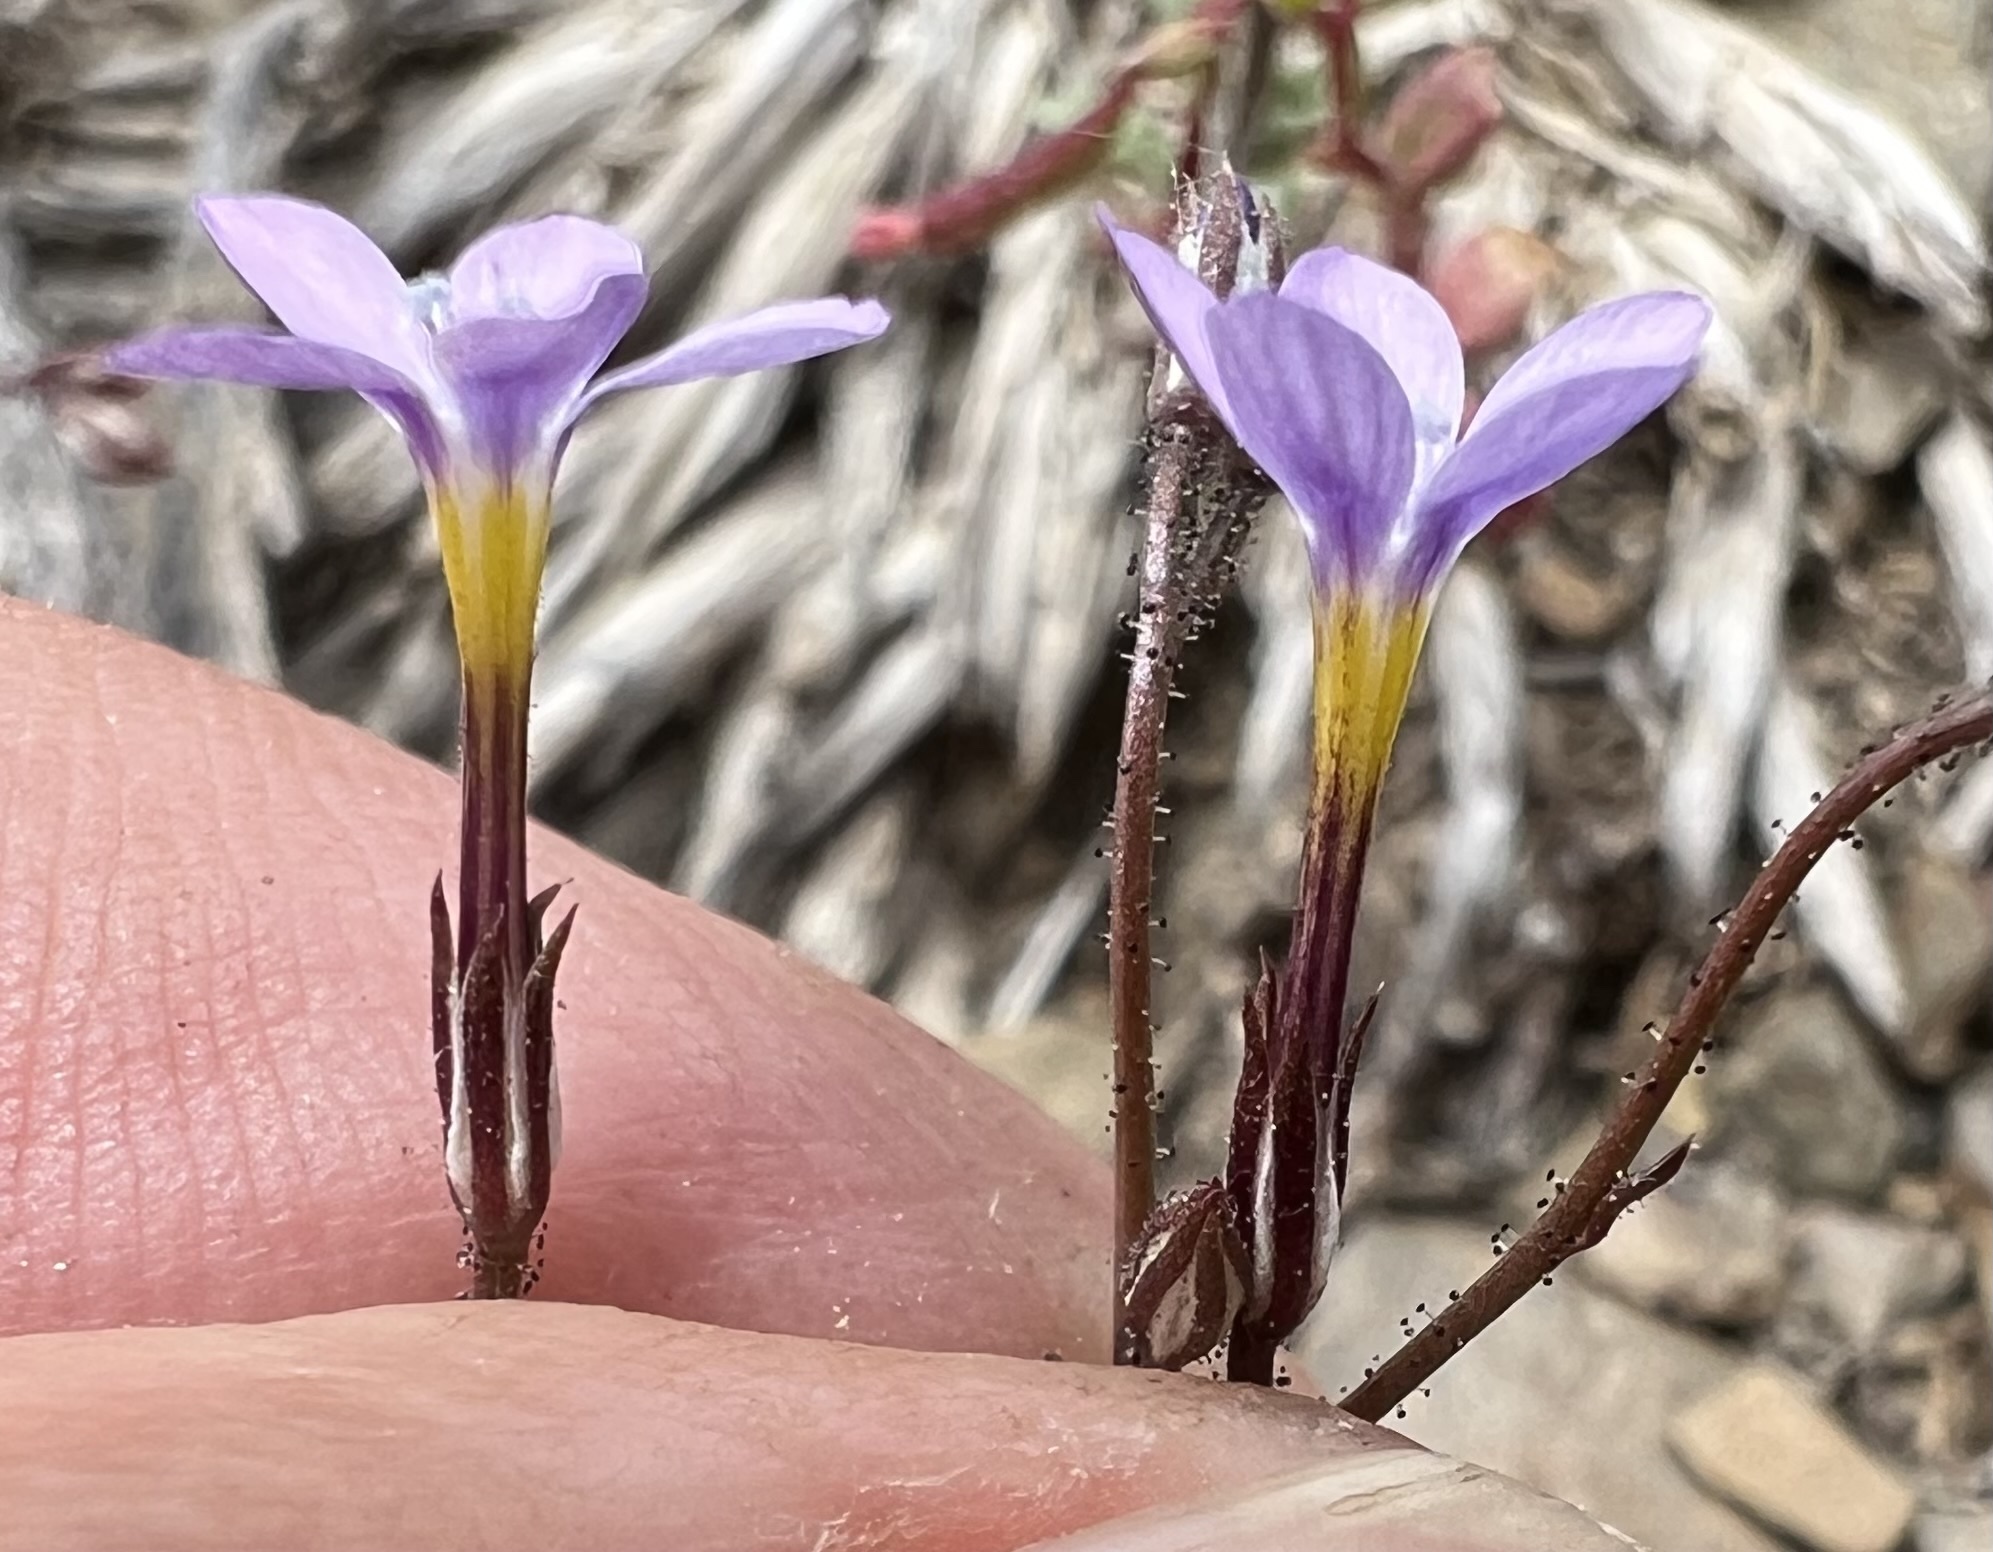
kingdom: Plantae
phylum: Tracheophyta
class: Magnoliopsida
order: Ericales
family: Polemoniaceae
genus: Gilia
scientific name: Gilia ophthalmoides
